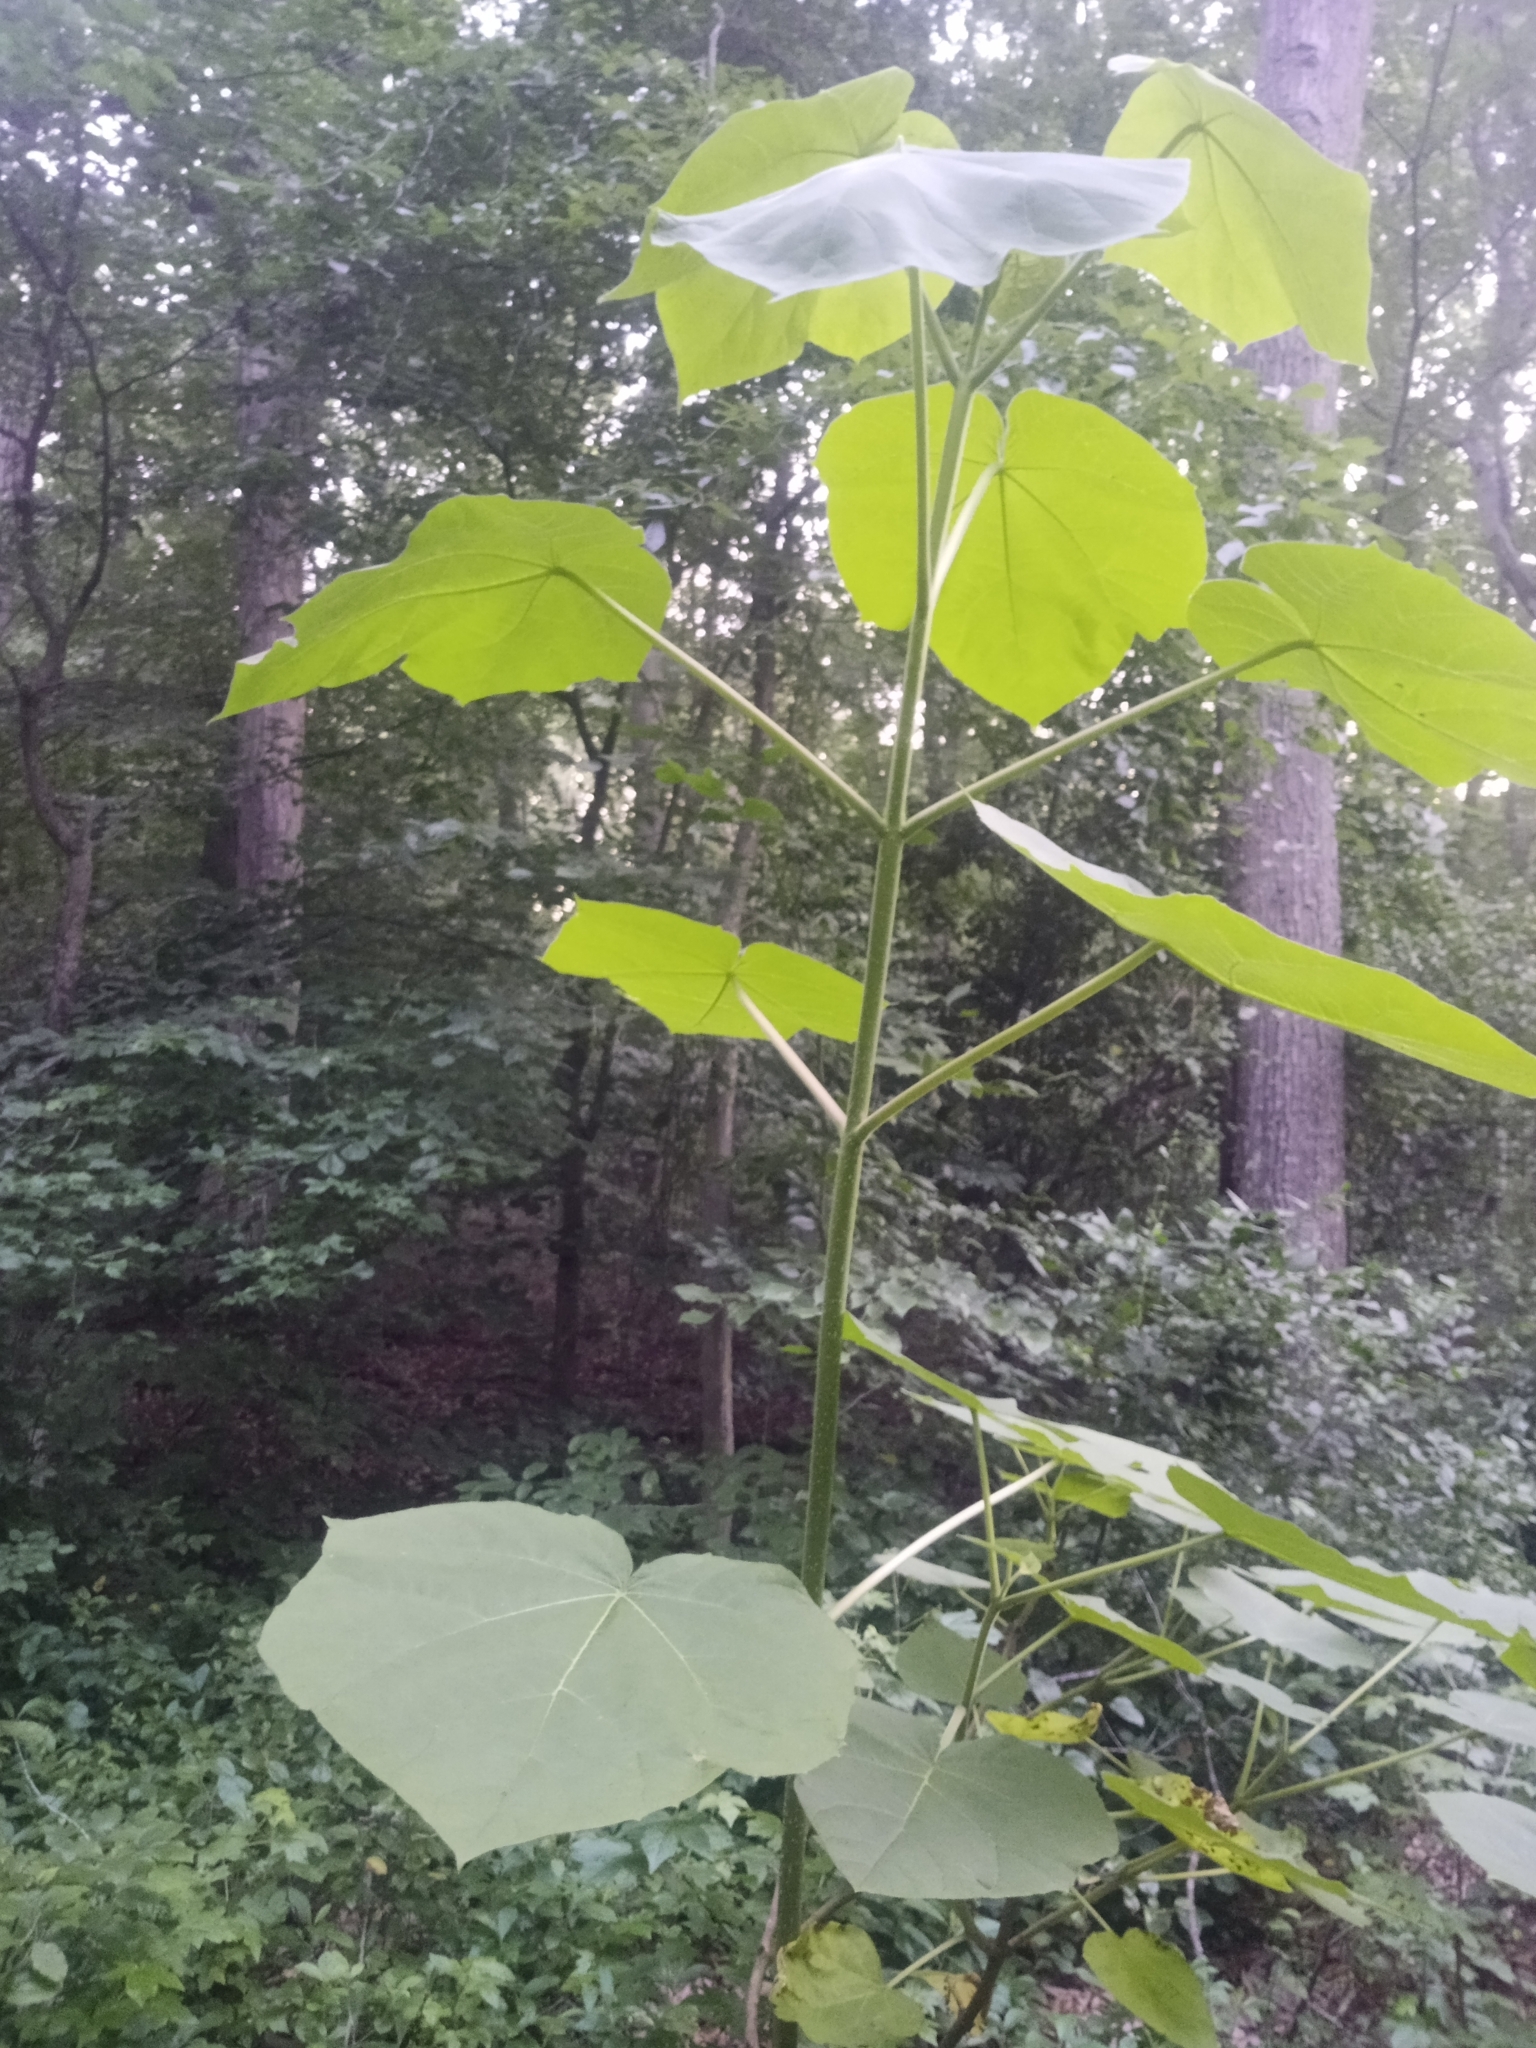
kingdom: Plantae
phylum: Tracheophyta
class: Magnoliopsida
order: Lamiales
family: Paulowniaceae
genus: Paulownia
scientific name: Paulownia tomentosa
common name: Foxglove-tree
